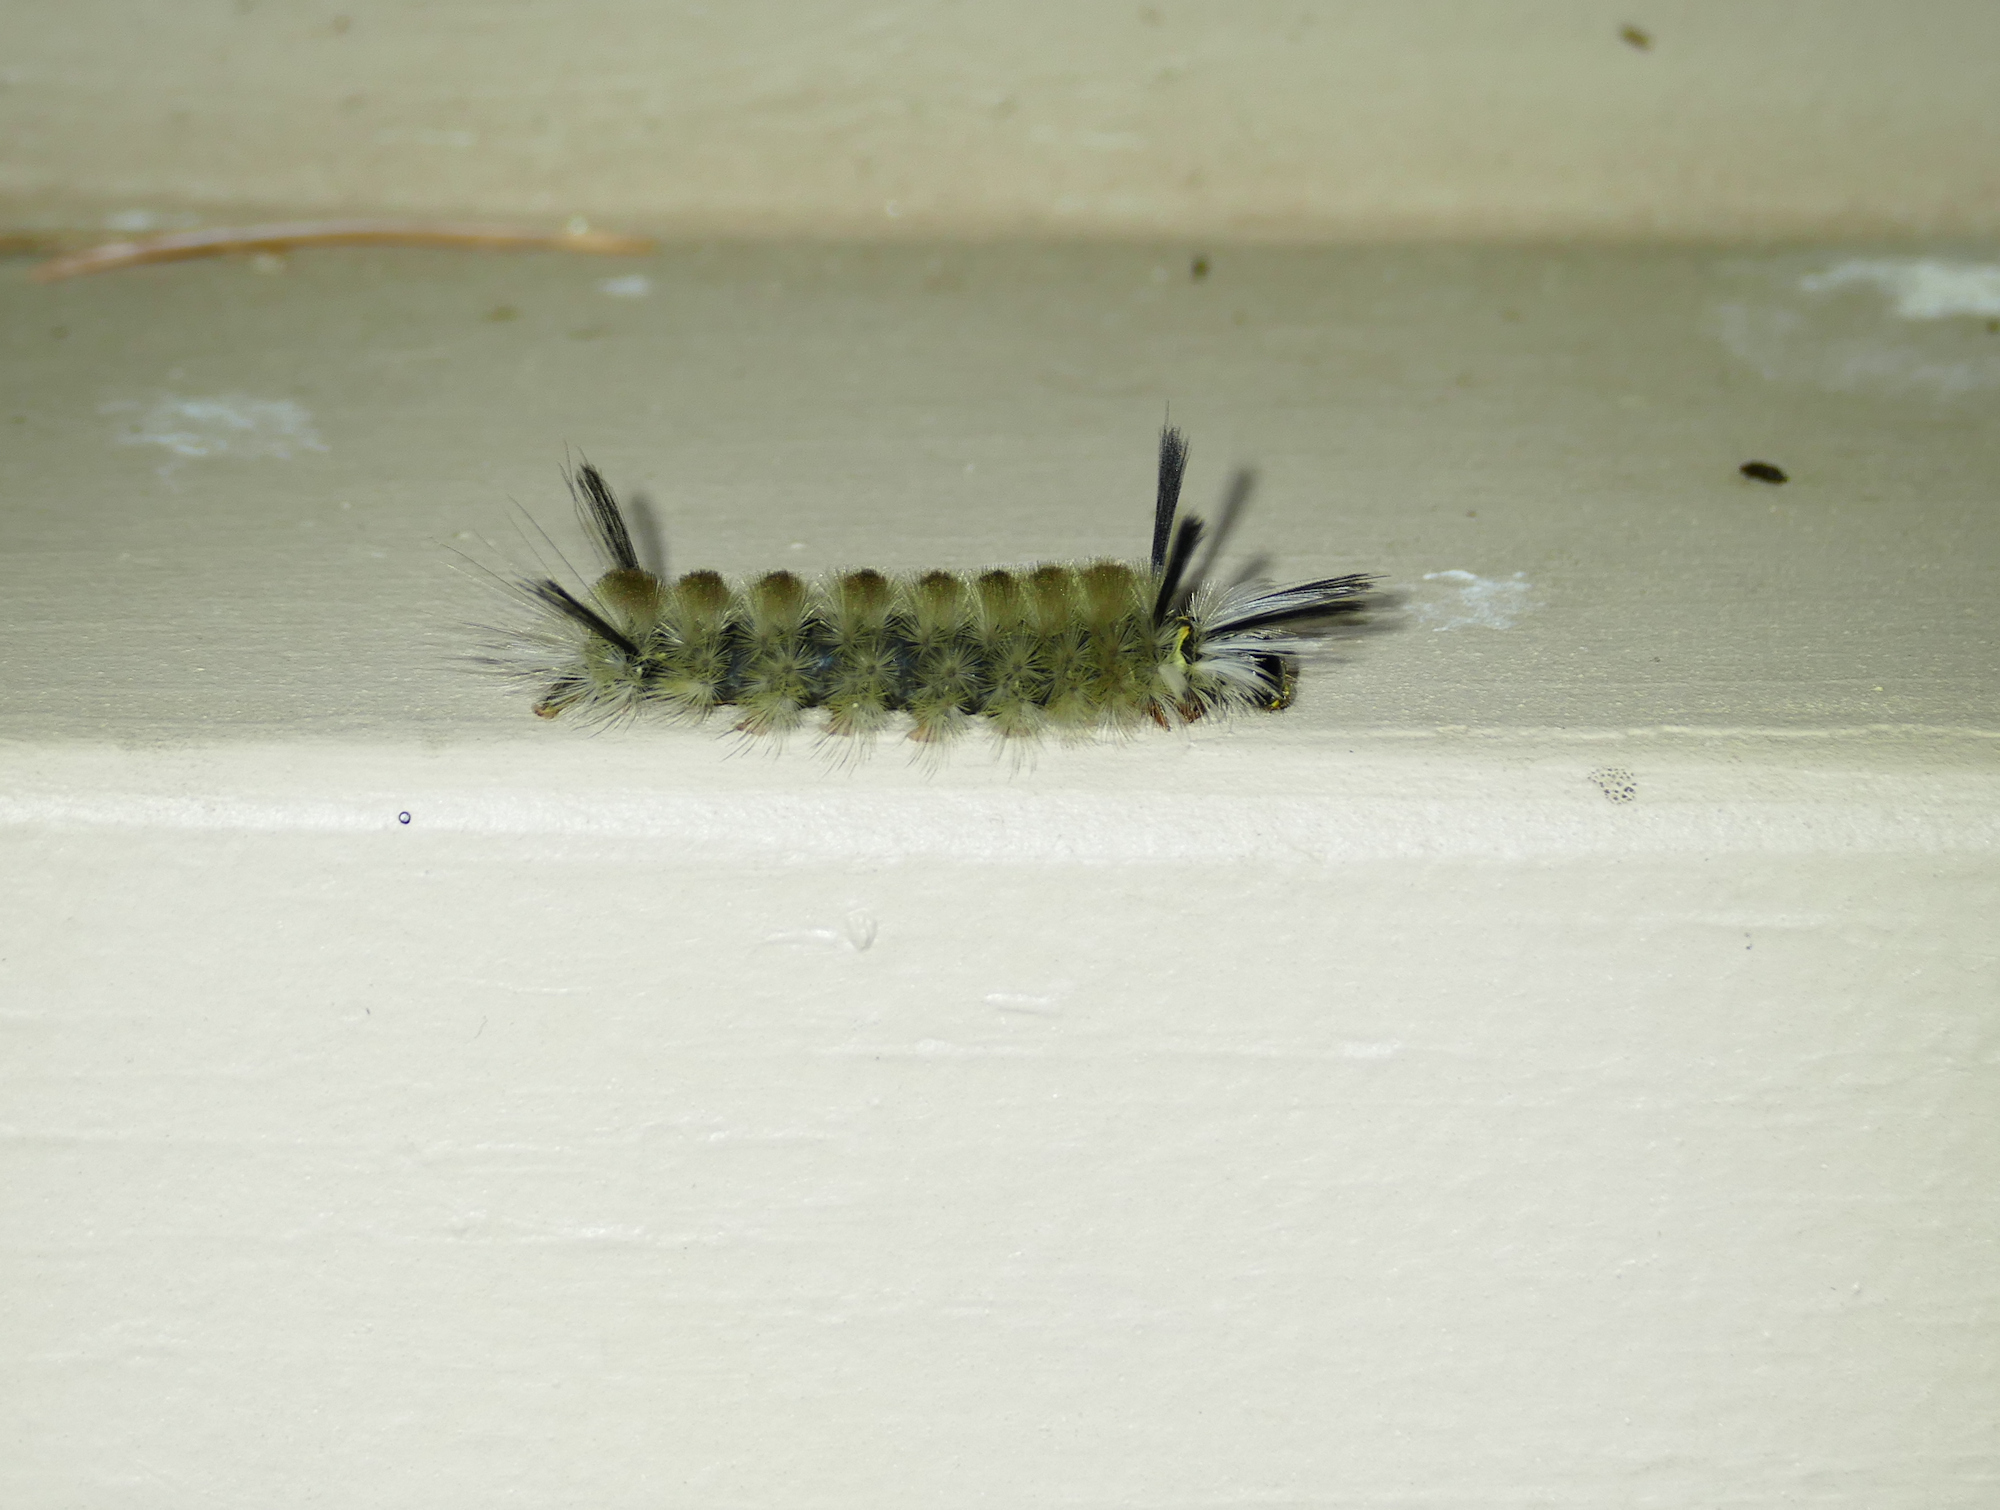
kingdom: Animalia
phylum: Arthropoda
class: Insecta
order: Lepidoptera
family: Erebidae
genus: Halysidota
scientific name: Halysidota tessellaris
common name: Banded tussock moth
